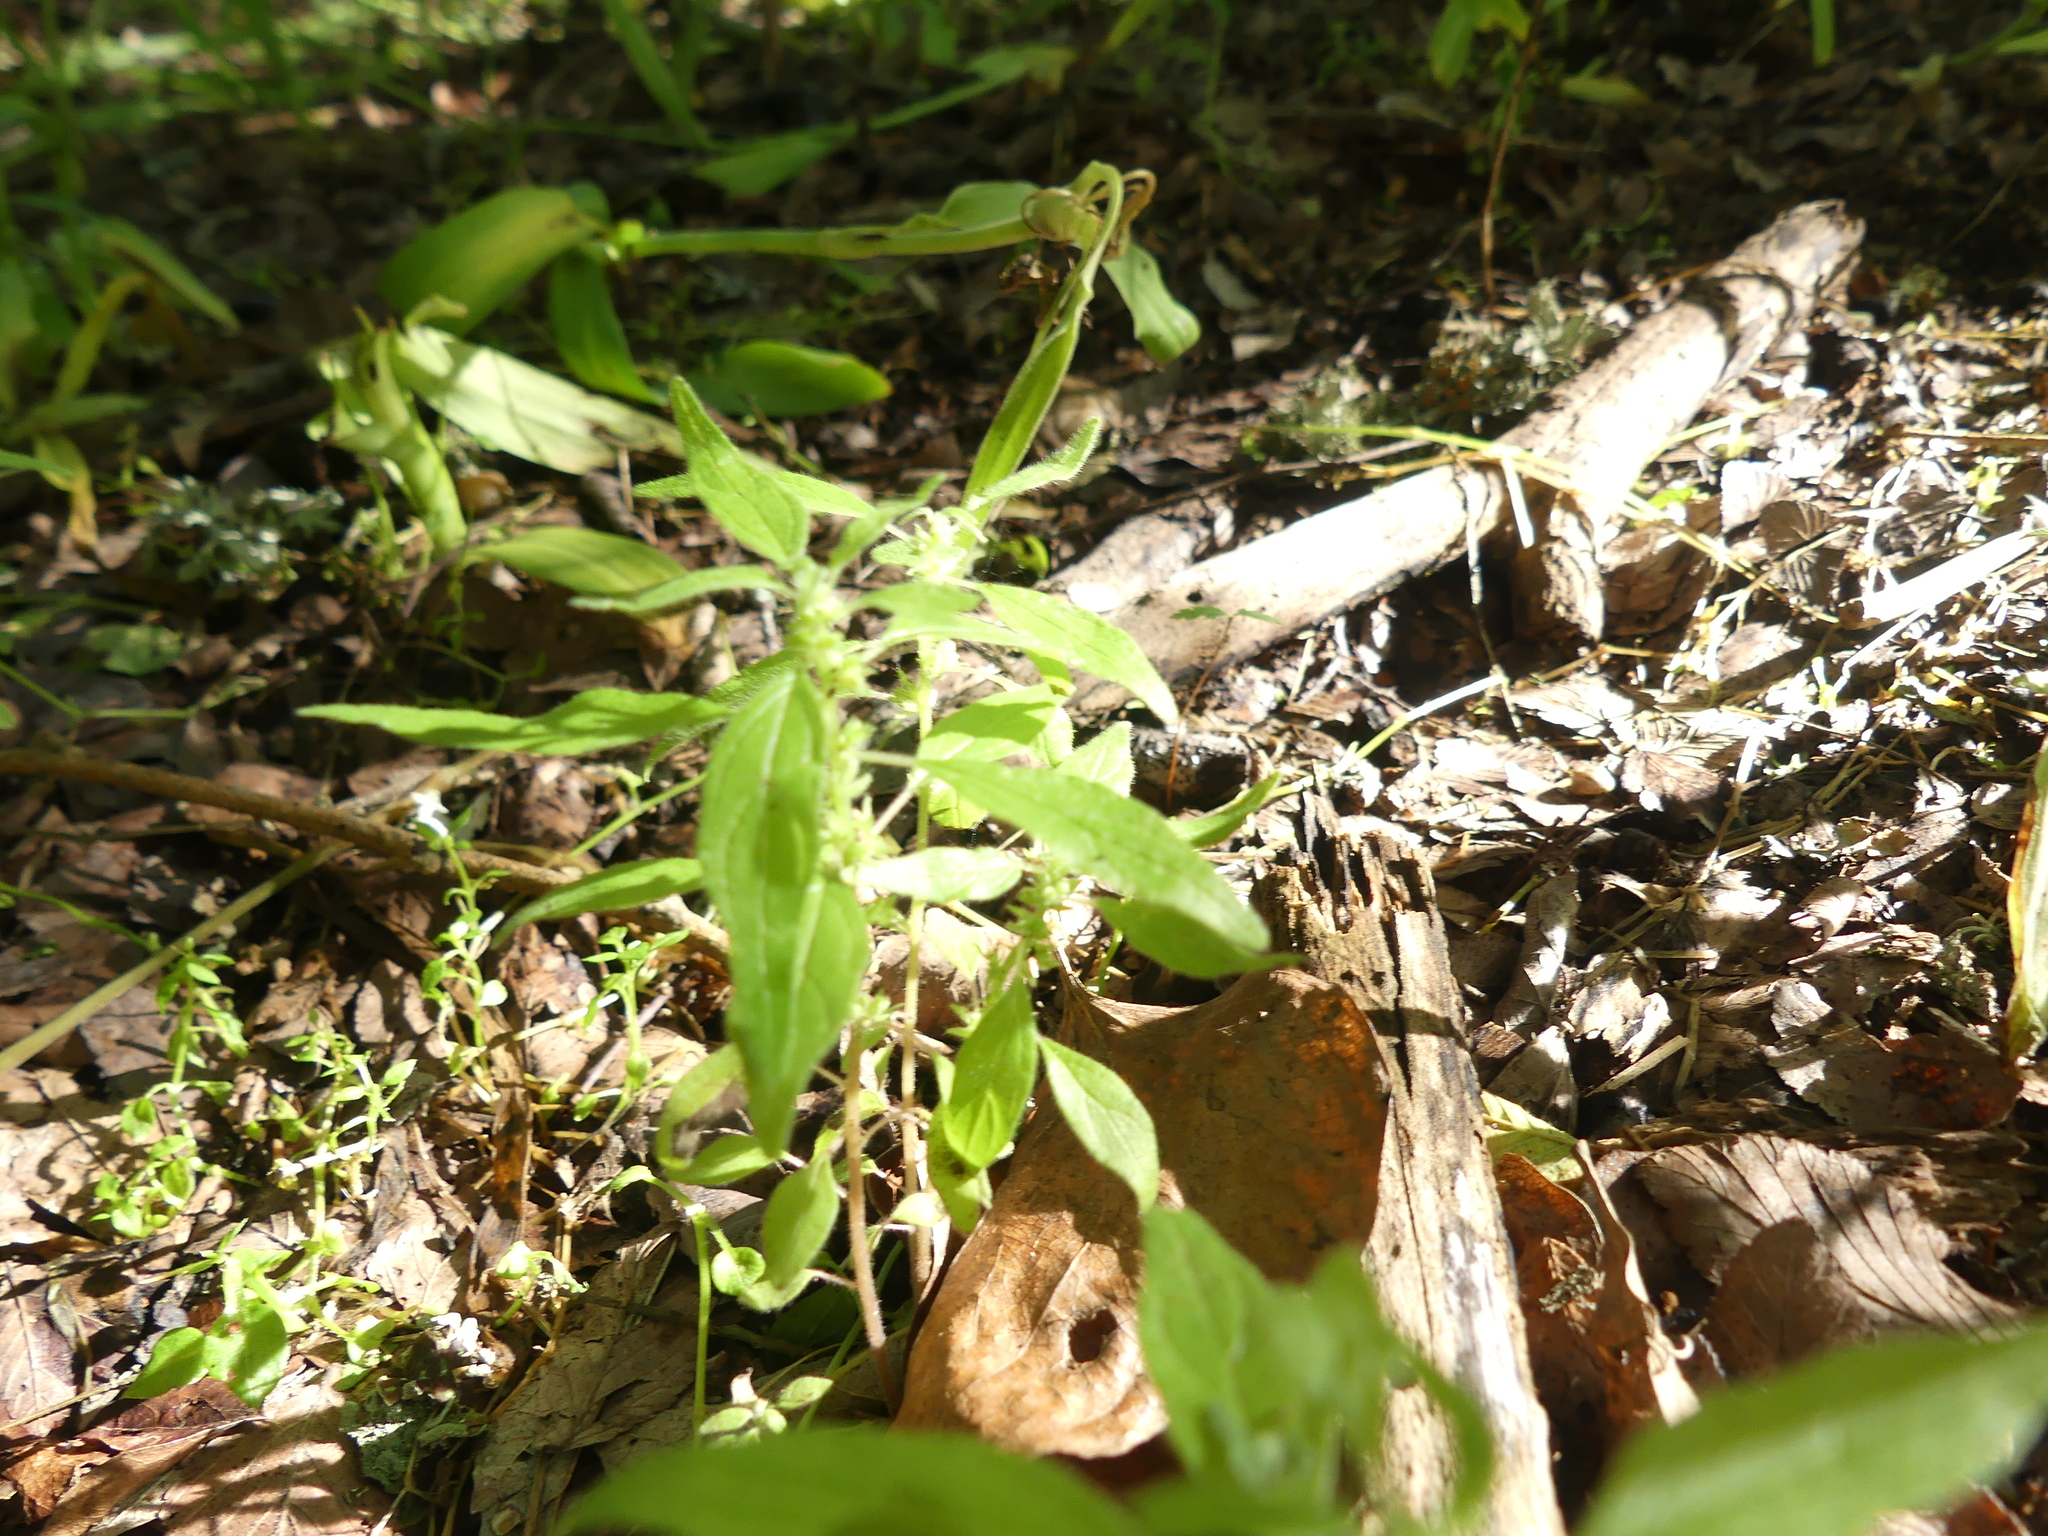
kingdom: Plantae
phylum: Tracheophyta
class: Magnoliopsida
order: Rosales
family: Urticaceae
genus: Parietaria
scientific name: Parietaria pensylvanica
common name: Pennsylvania pellitory
